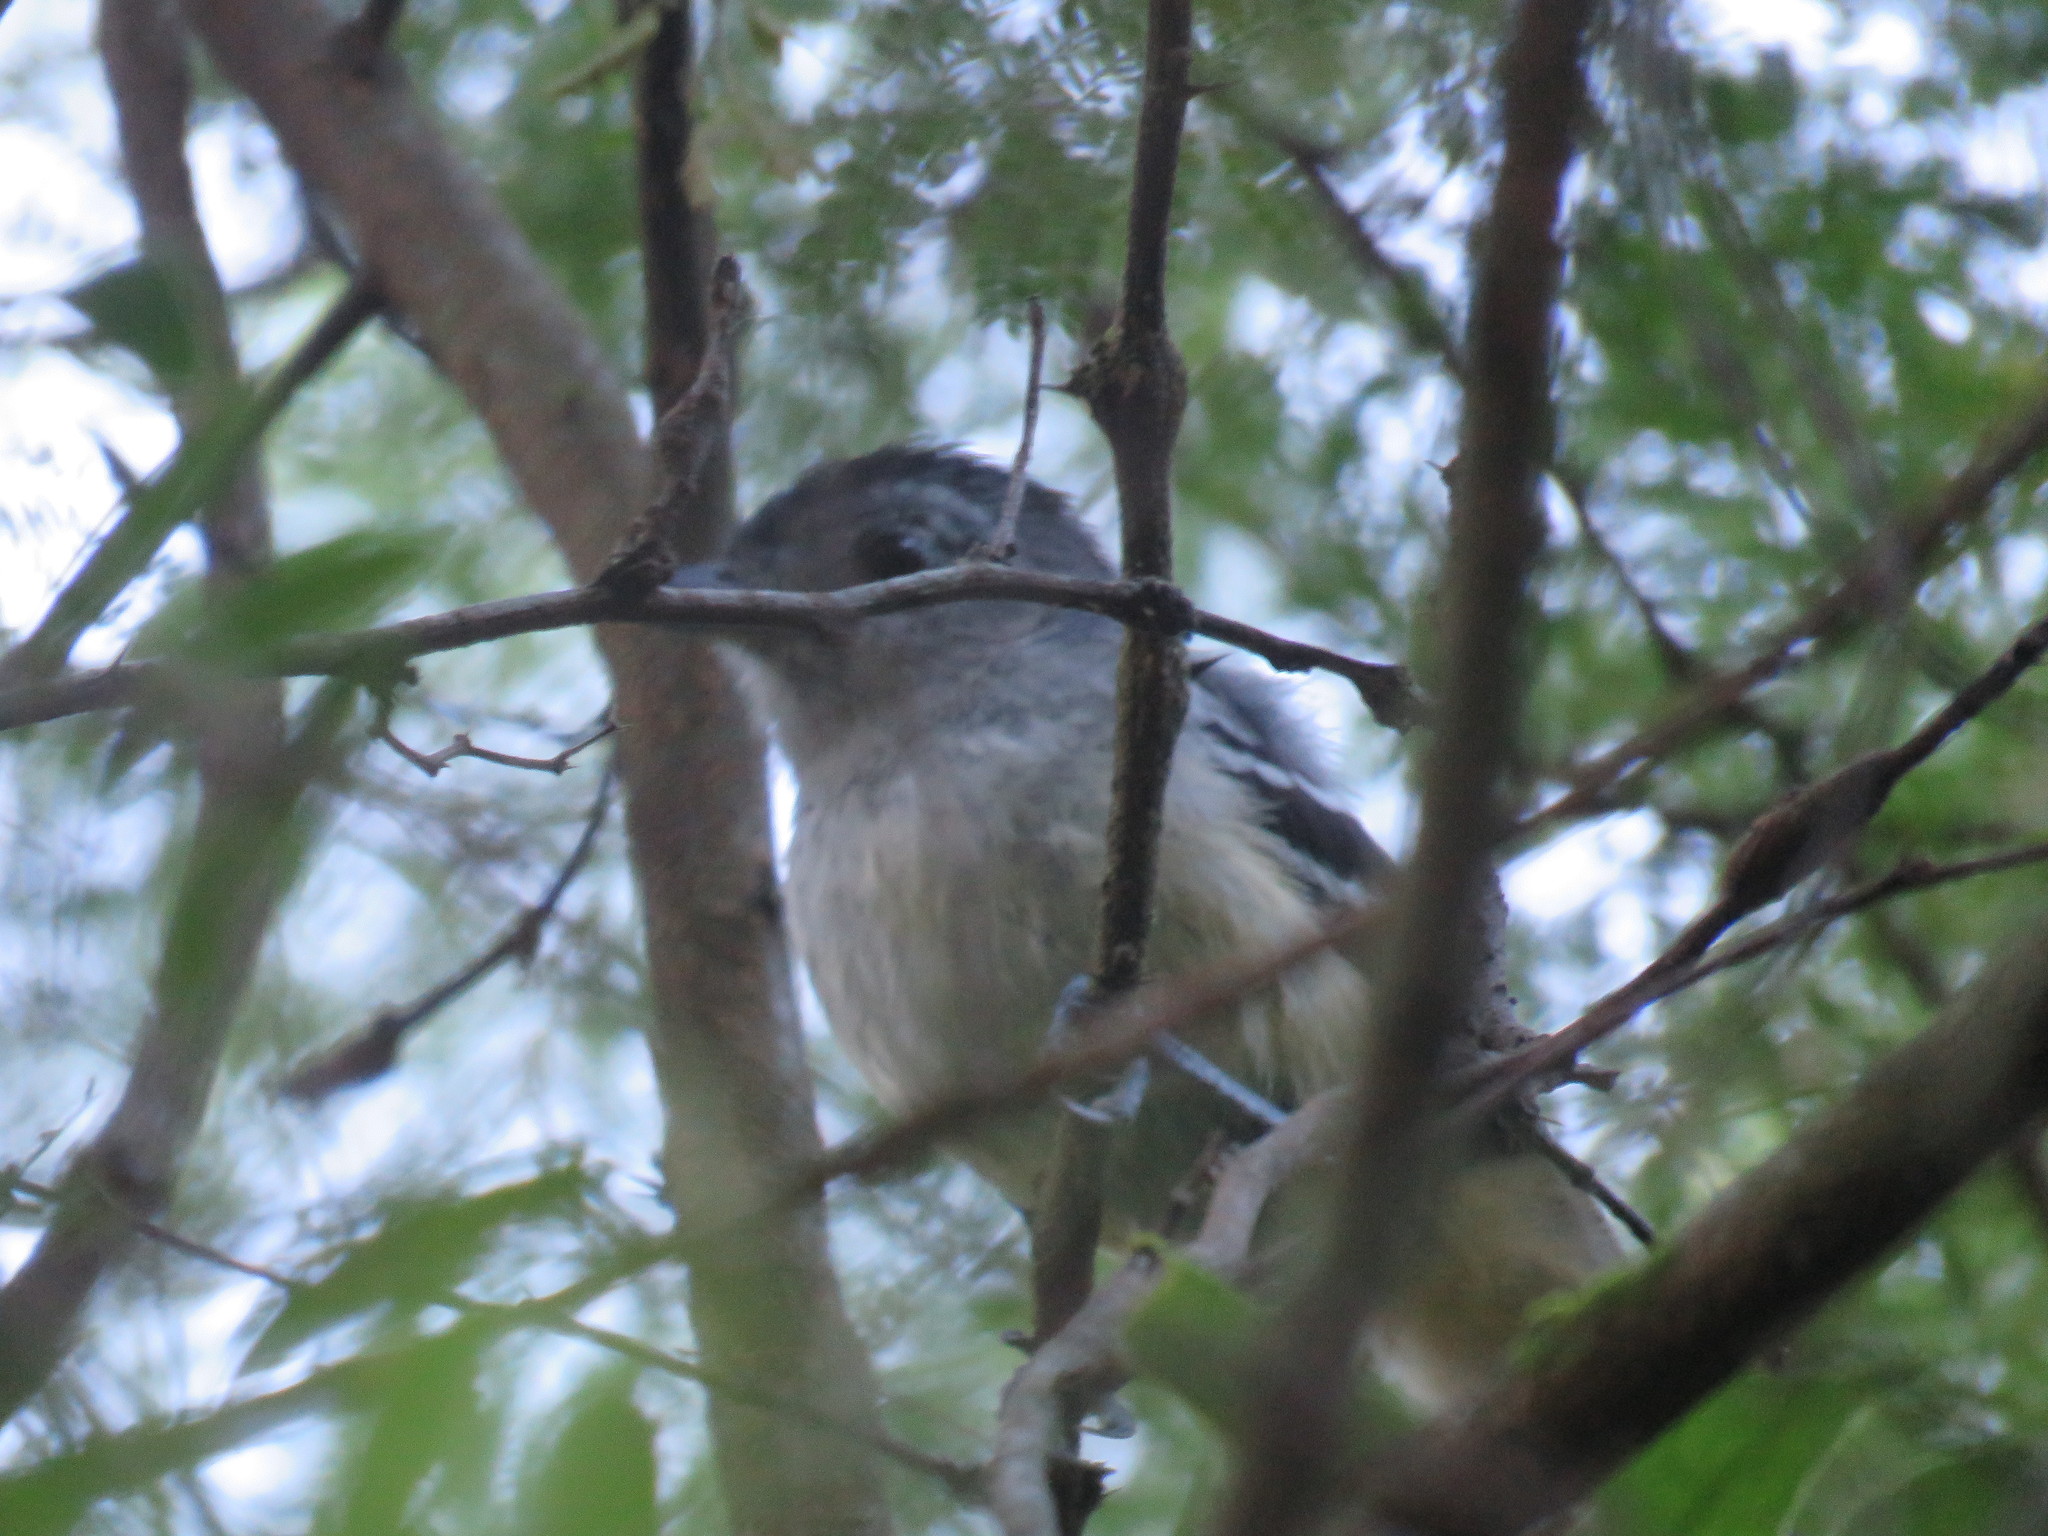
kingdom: Animalia
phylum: Chordata
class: Aves
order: Passeriformes
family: Thamnophilidae
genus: Thamnophilus
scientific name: Thamnophilus caerulescens
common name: Variable antshrike
